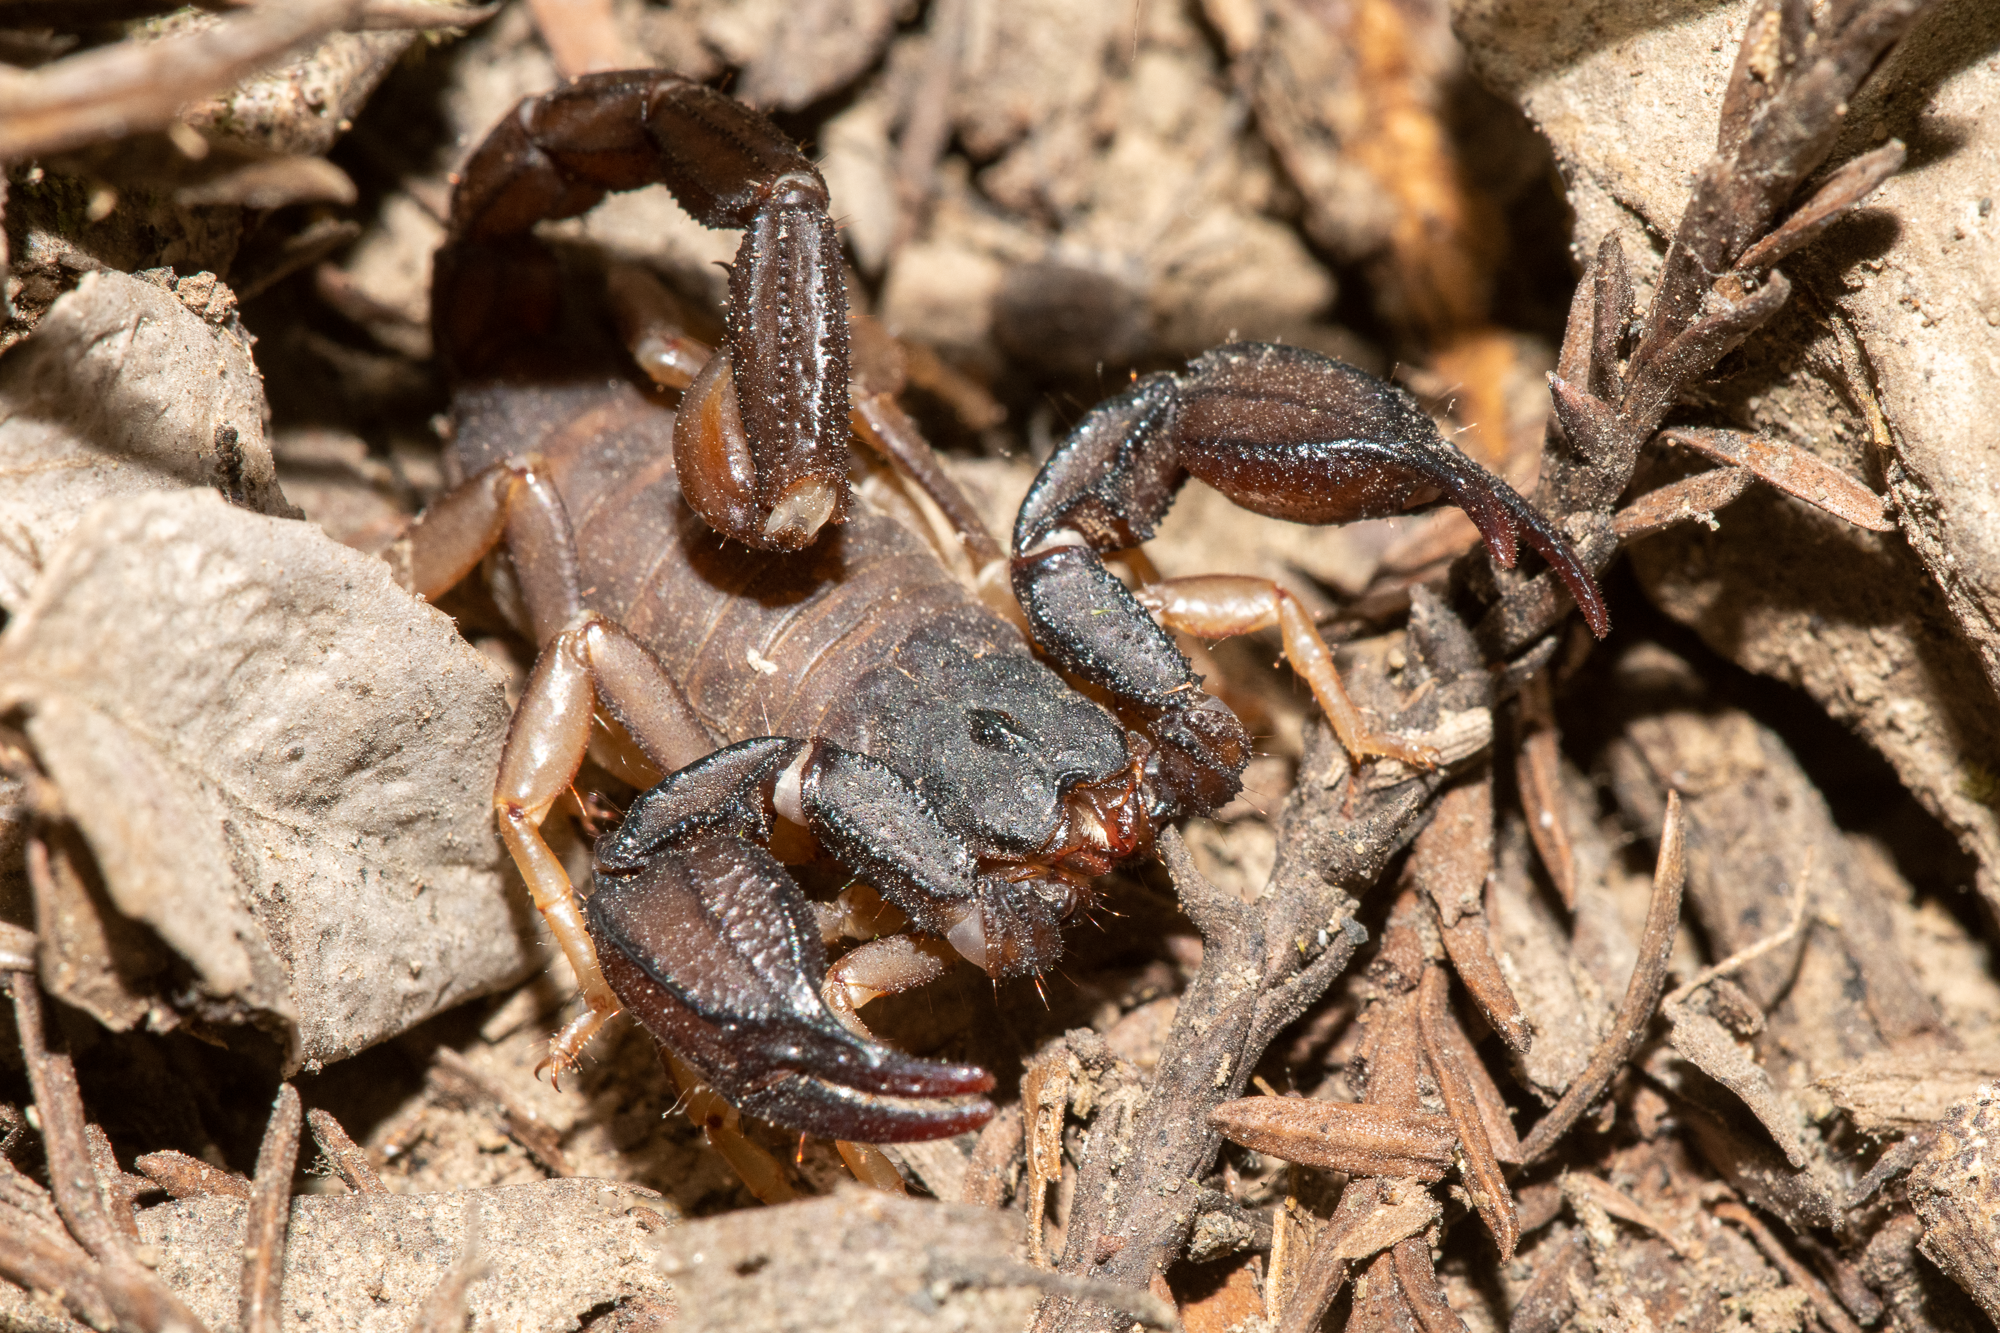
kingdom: Animalia
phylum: Arthropoda
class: Arachnida
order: Scorpiones
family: Chactidae
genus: Uroctonus
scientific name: Uroctonus mordax
